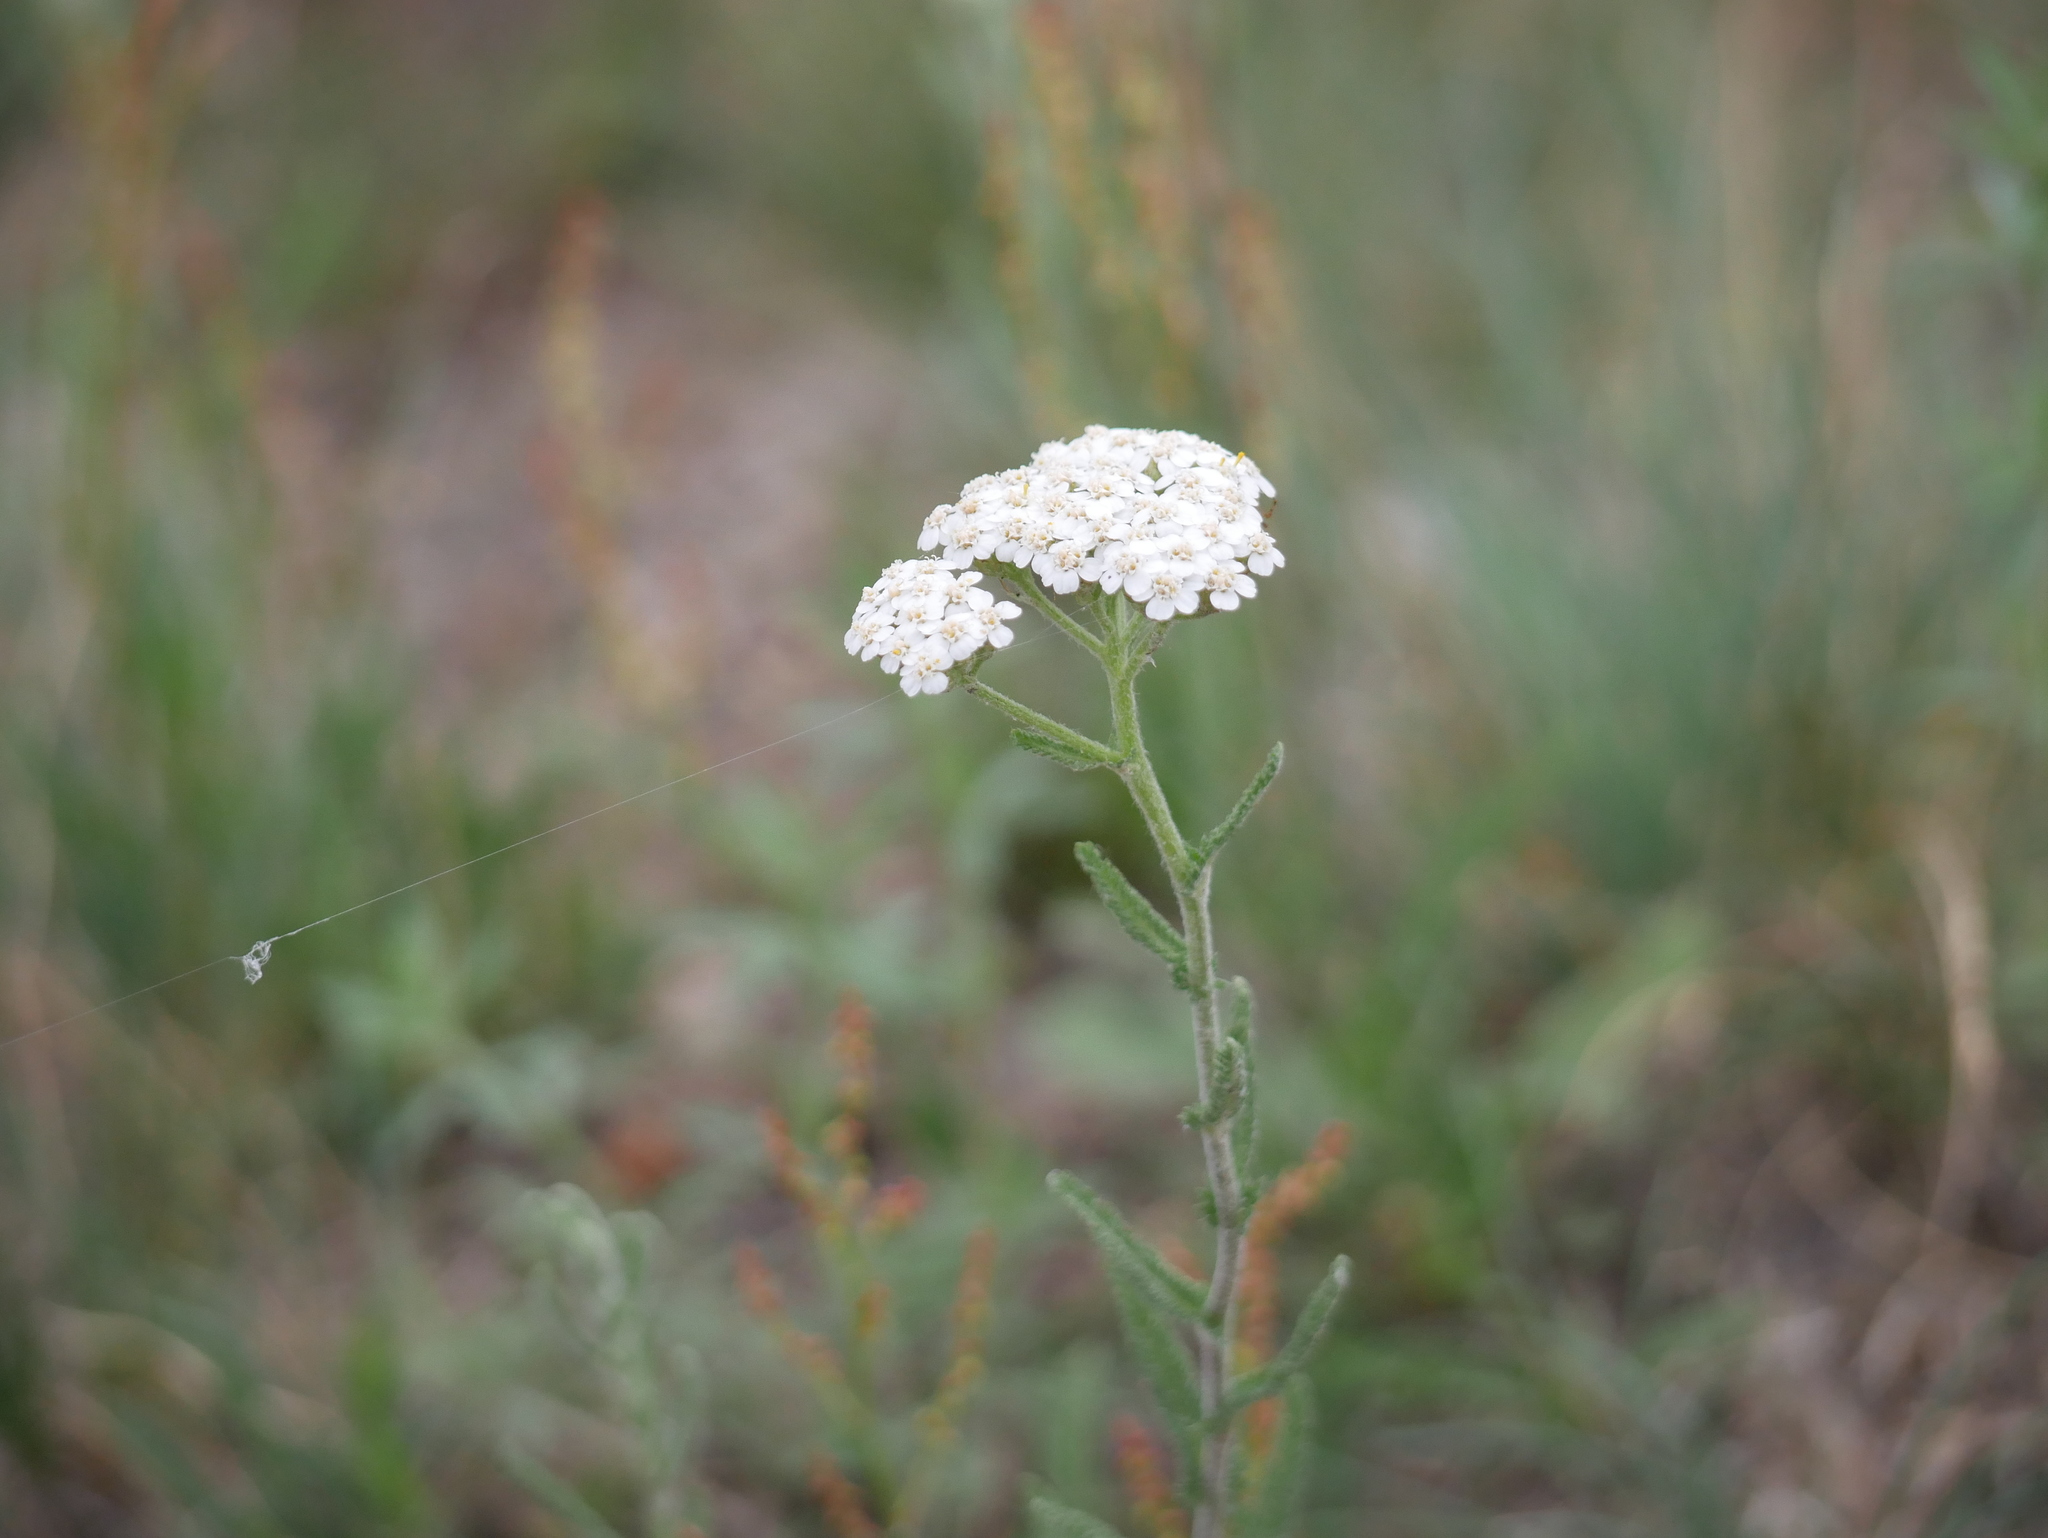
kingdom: Plantae
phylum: Tracheophyta
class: Magnoliopsida
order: Asterales
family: Asteraceae
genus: Achillea
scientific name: Achillea millefolium
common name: Yarrow
